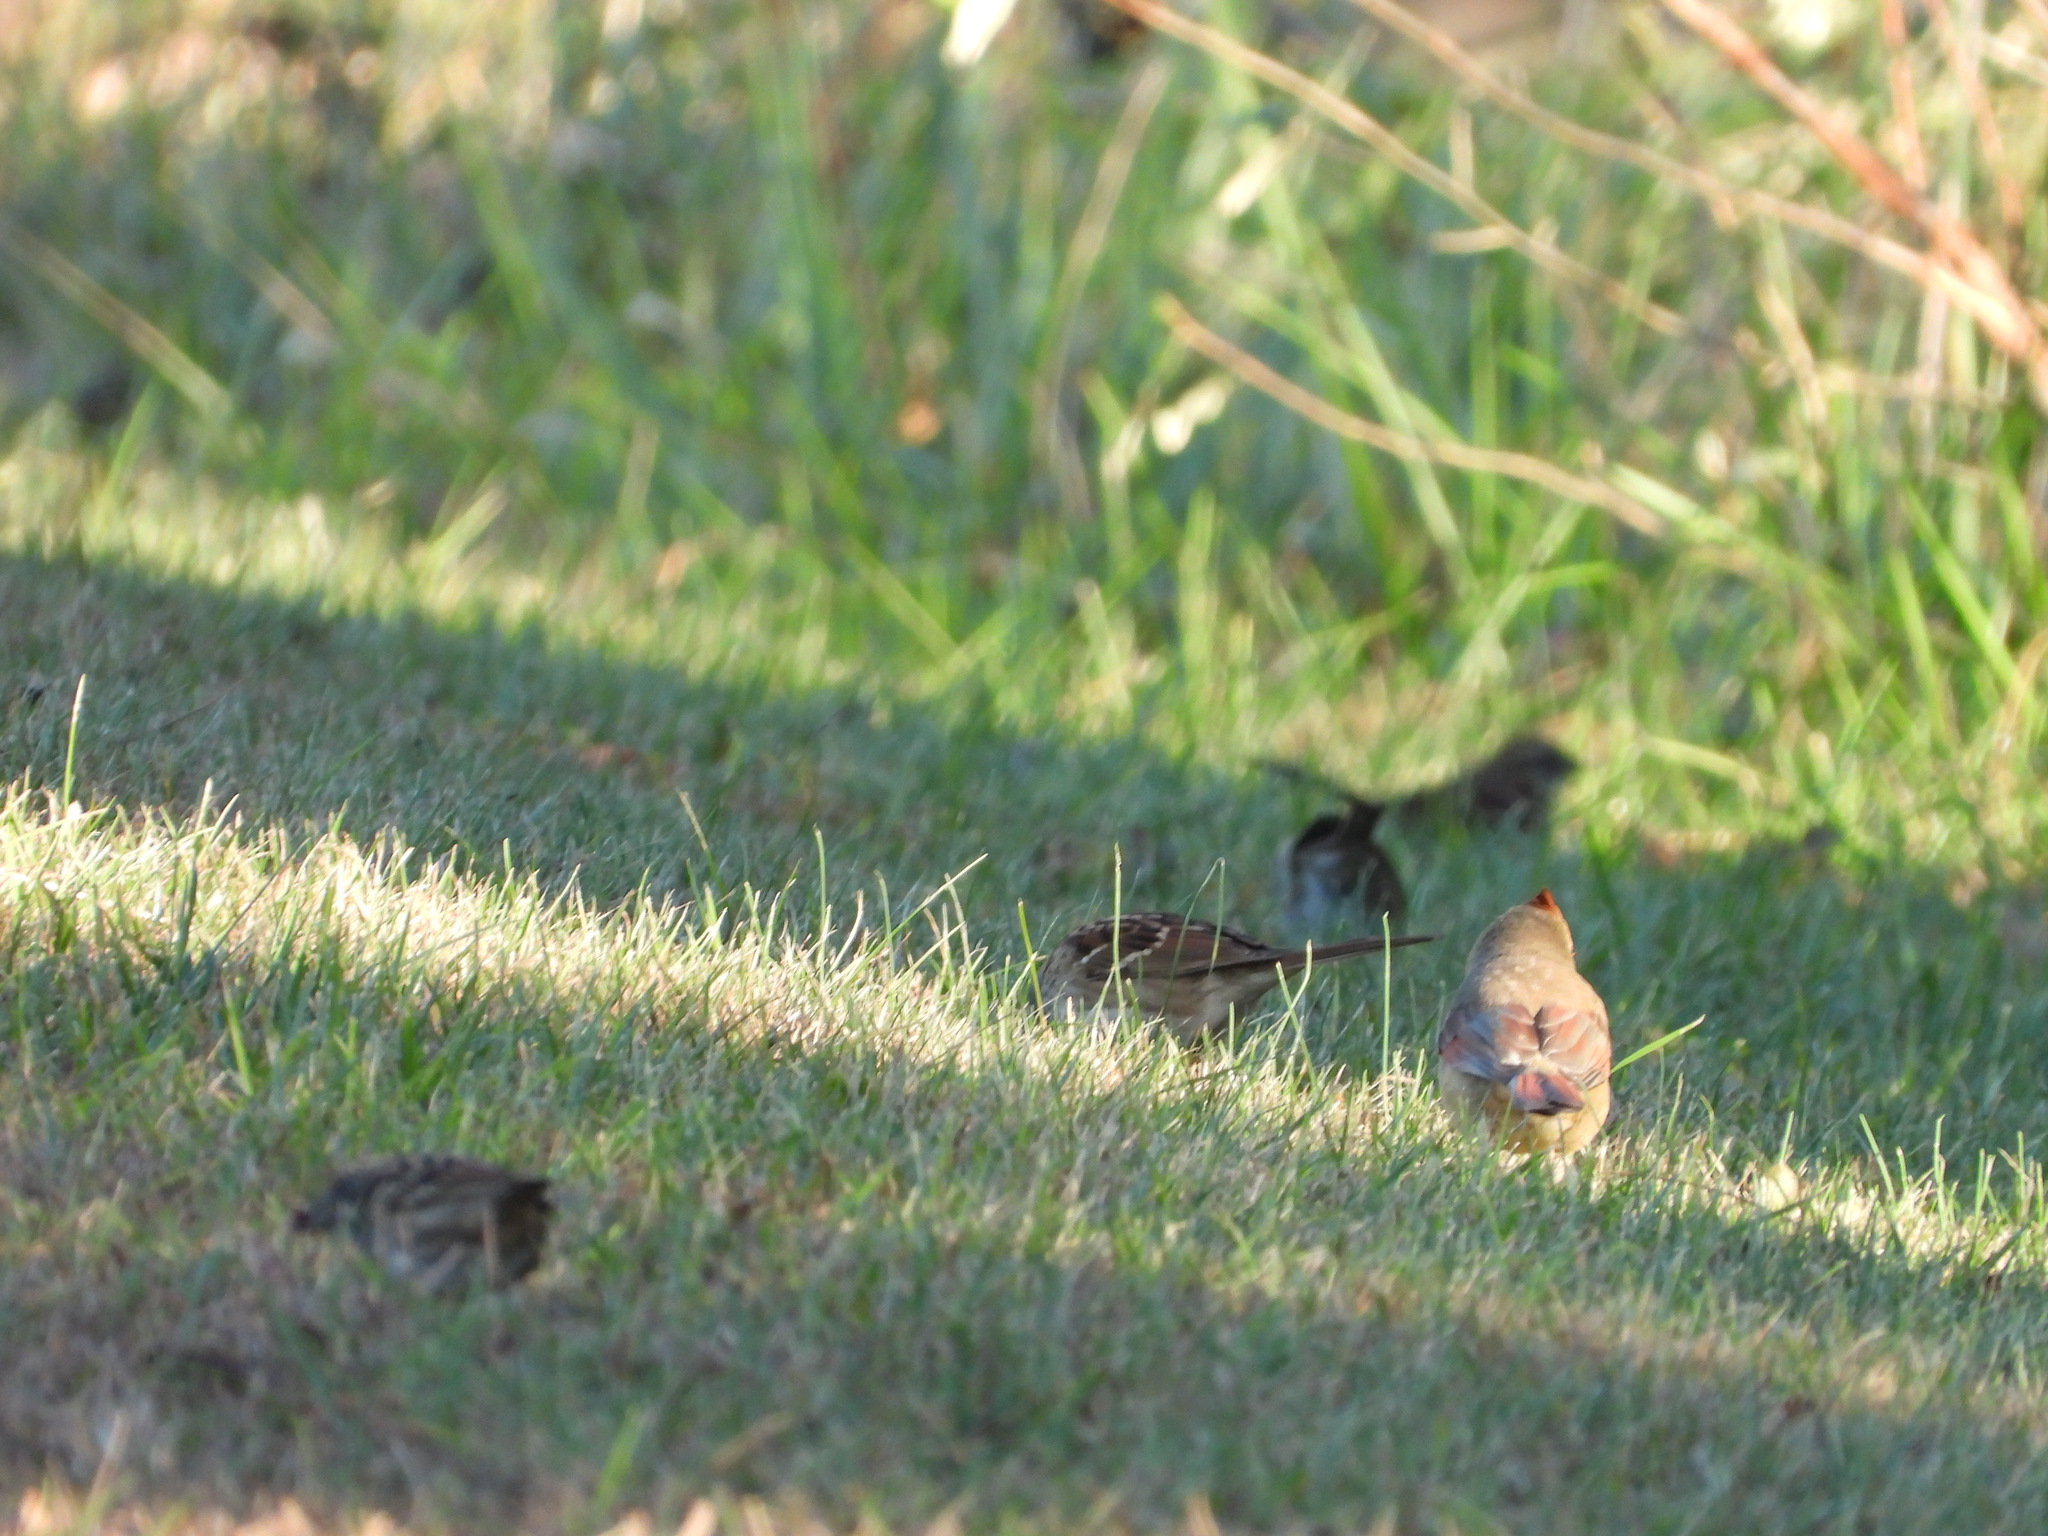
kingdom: Animalia
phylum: Chordata
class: Aves
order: Passeriformes
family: Cardinalidae
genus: Cardinalis
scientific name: Cardinalis cardinalis
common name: Northern cardinal
